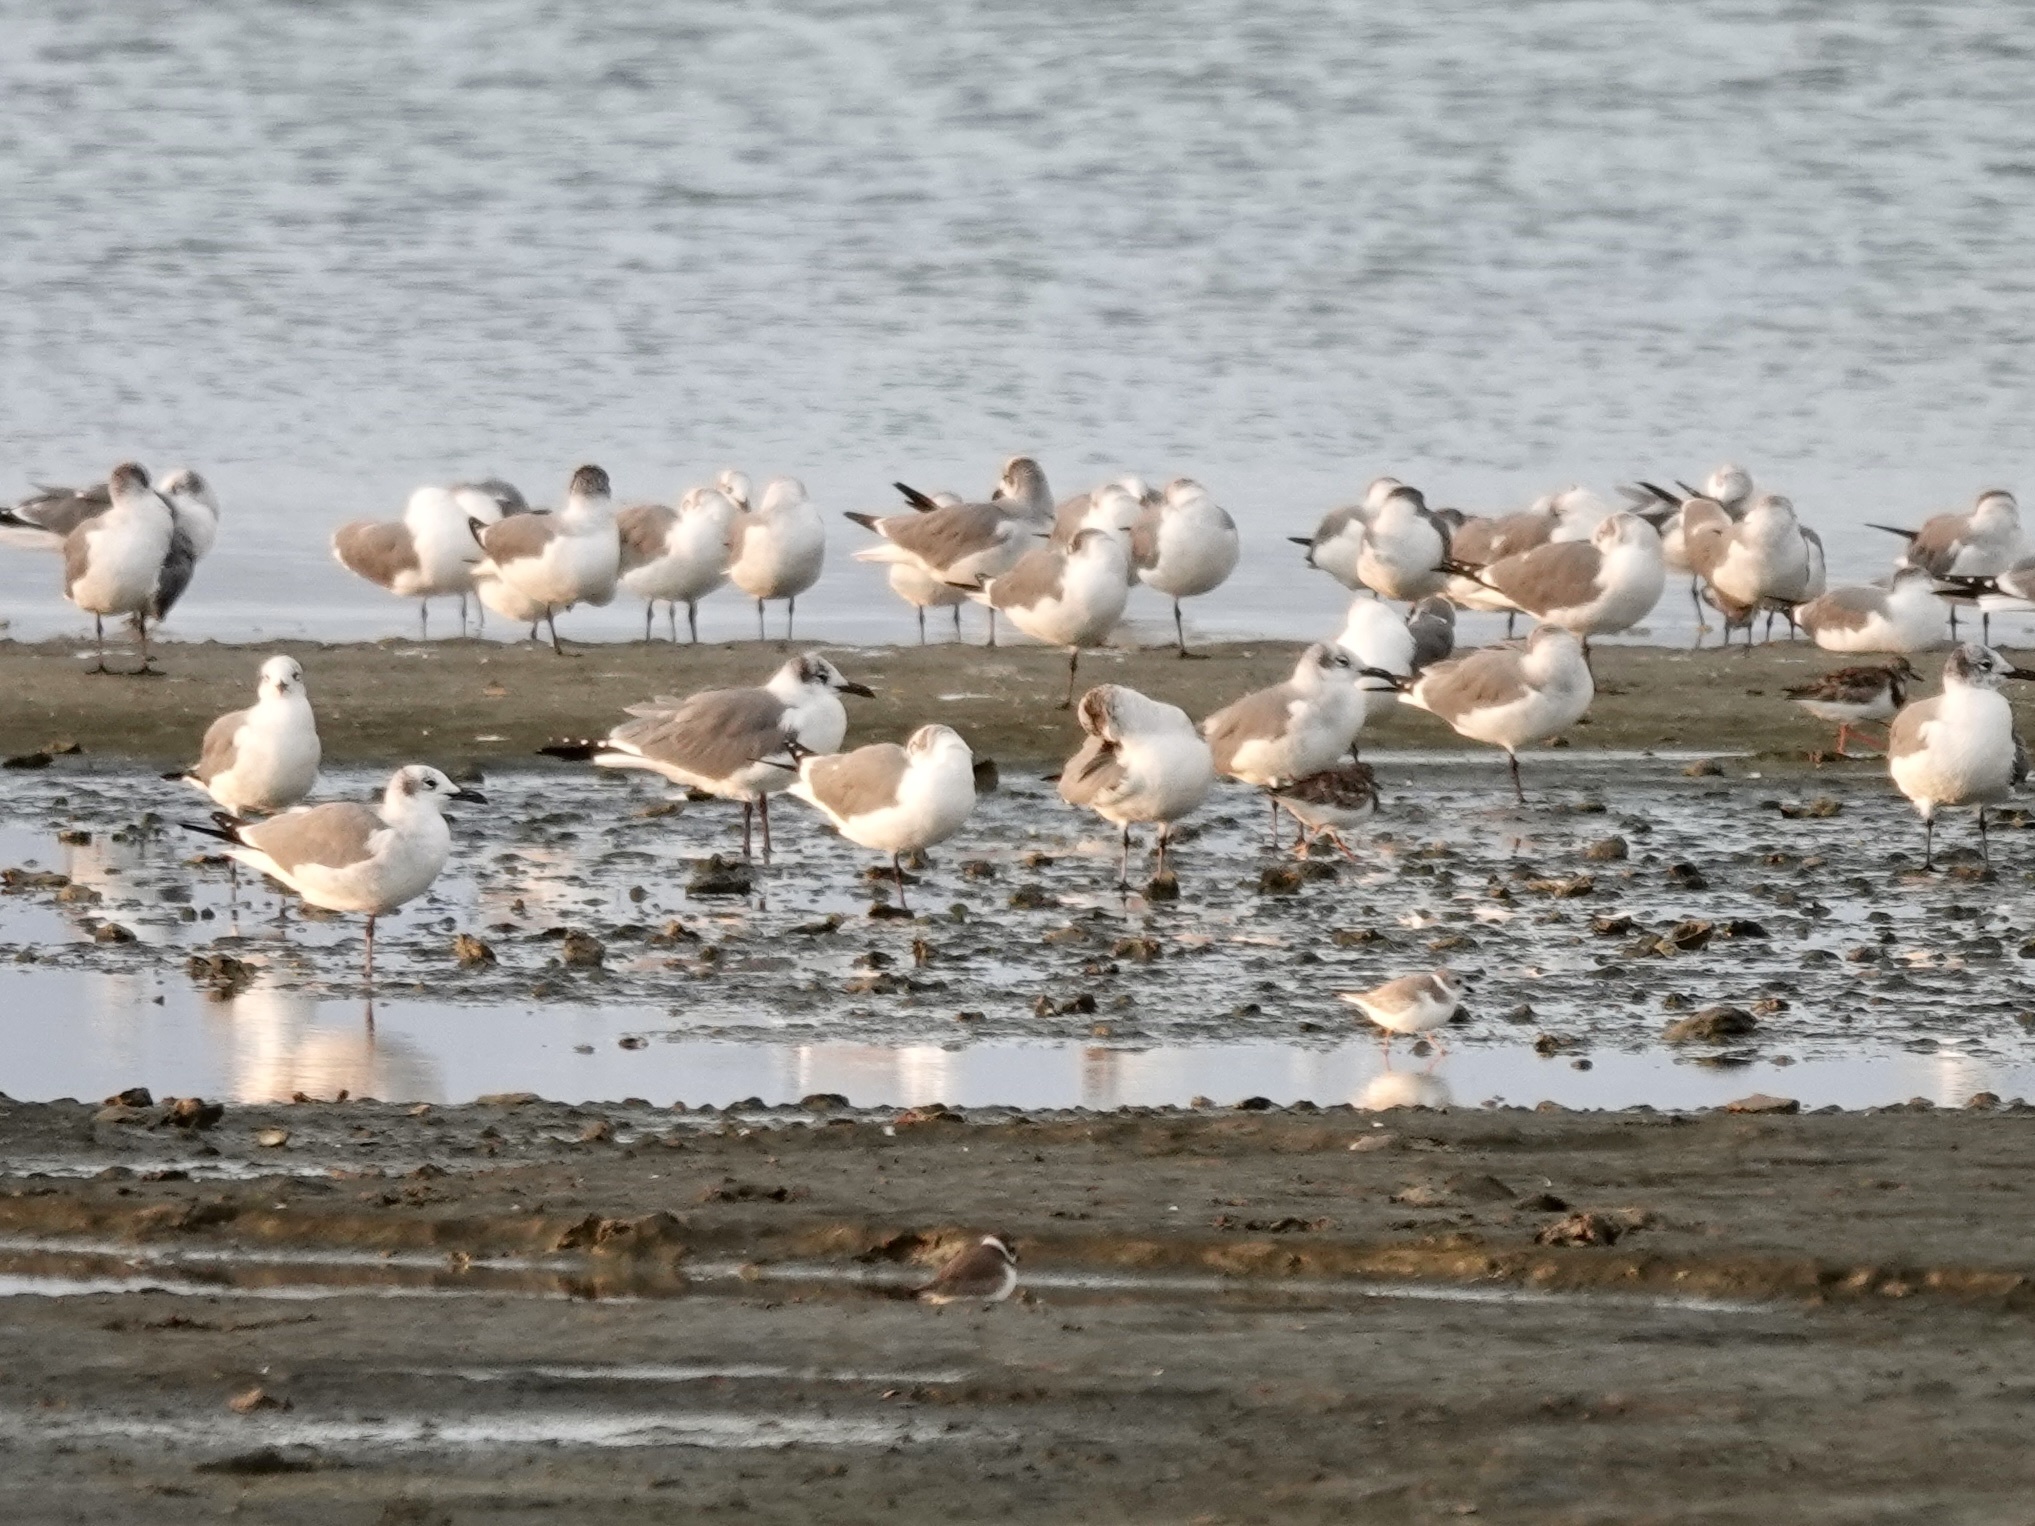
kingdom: Animalia
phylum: Chordata
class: Aves
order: Charadriiformes
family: Laridae
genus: Leucophaeus
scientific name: Leucophaeus atricilla
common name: Laughing gull
